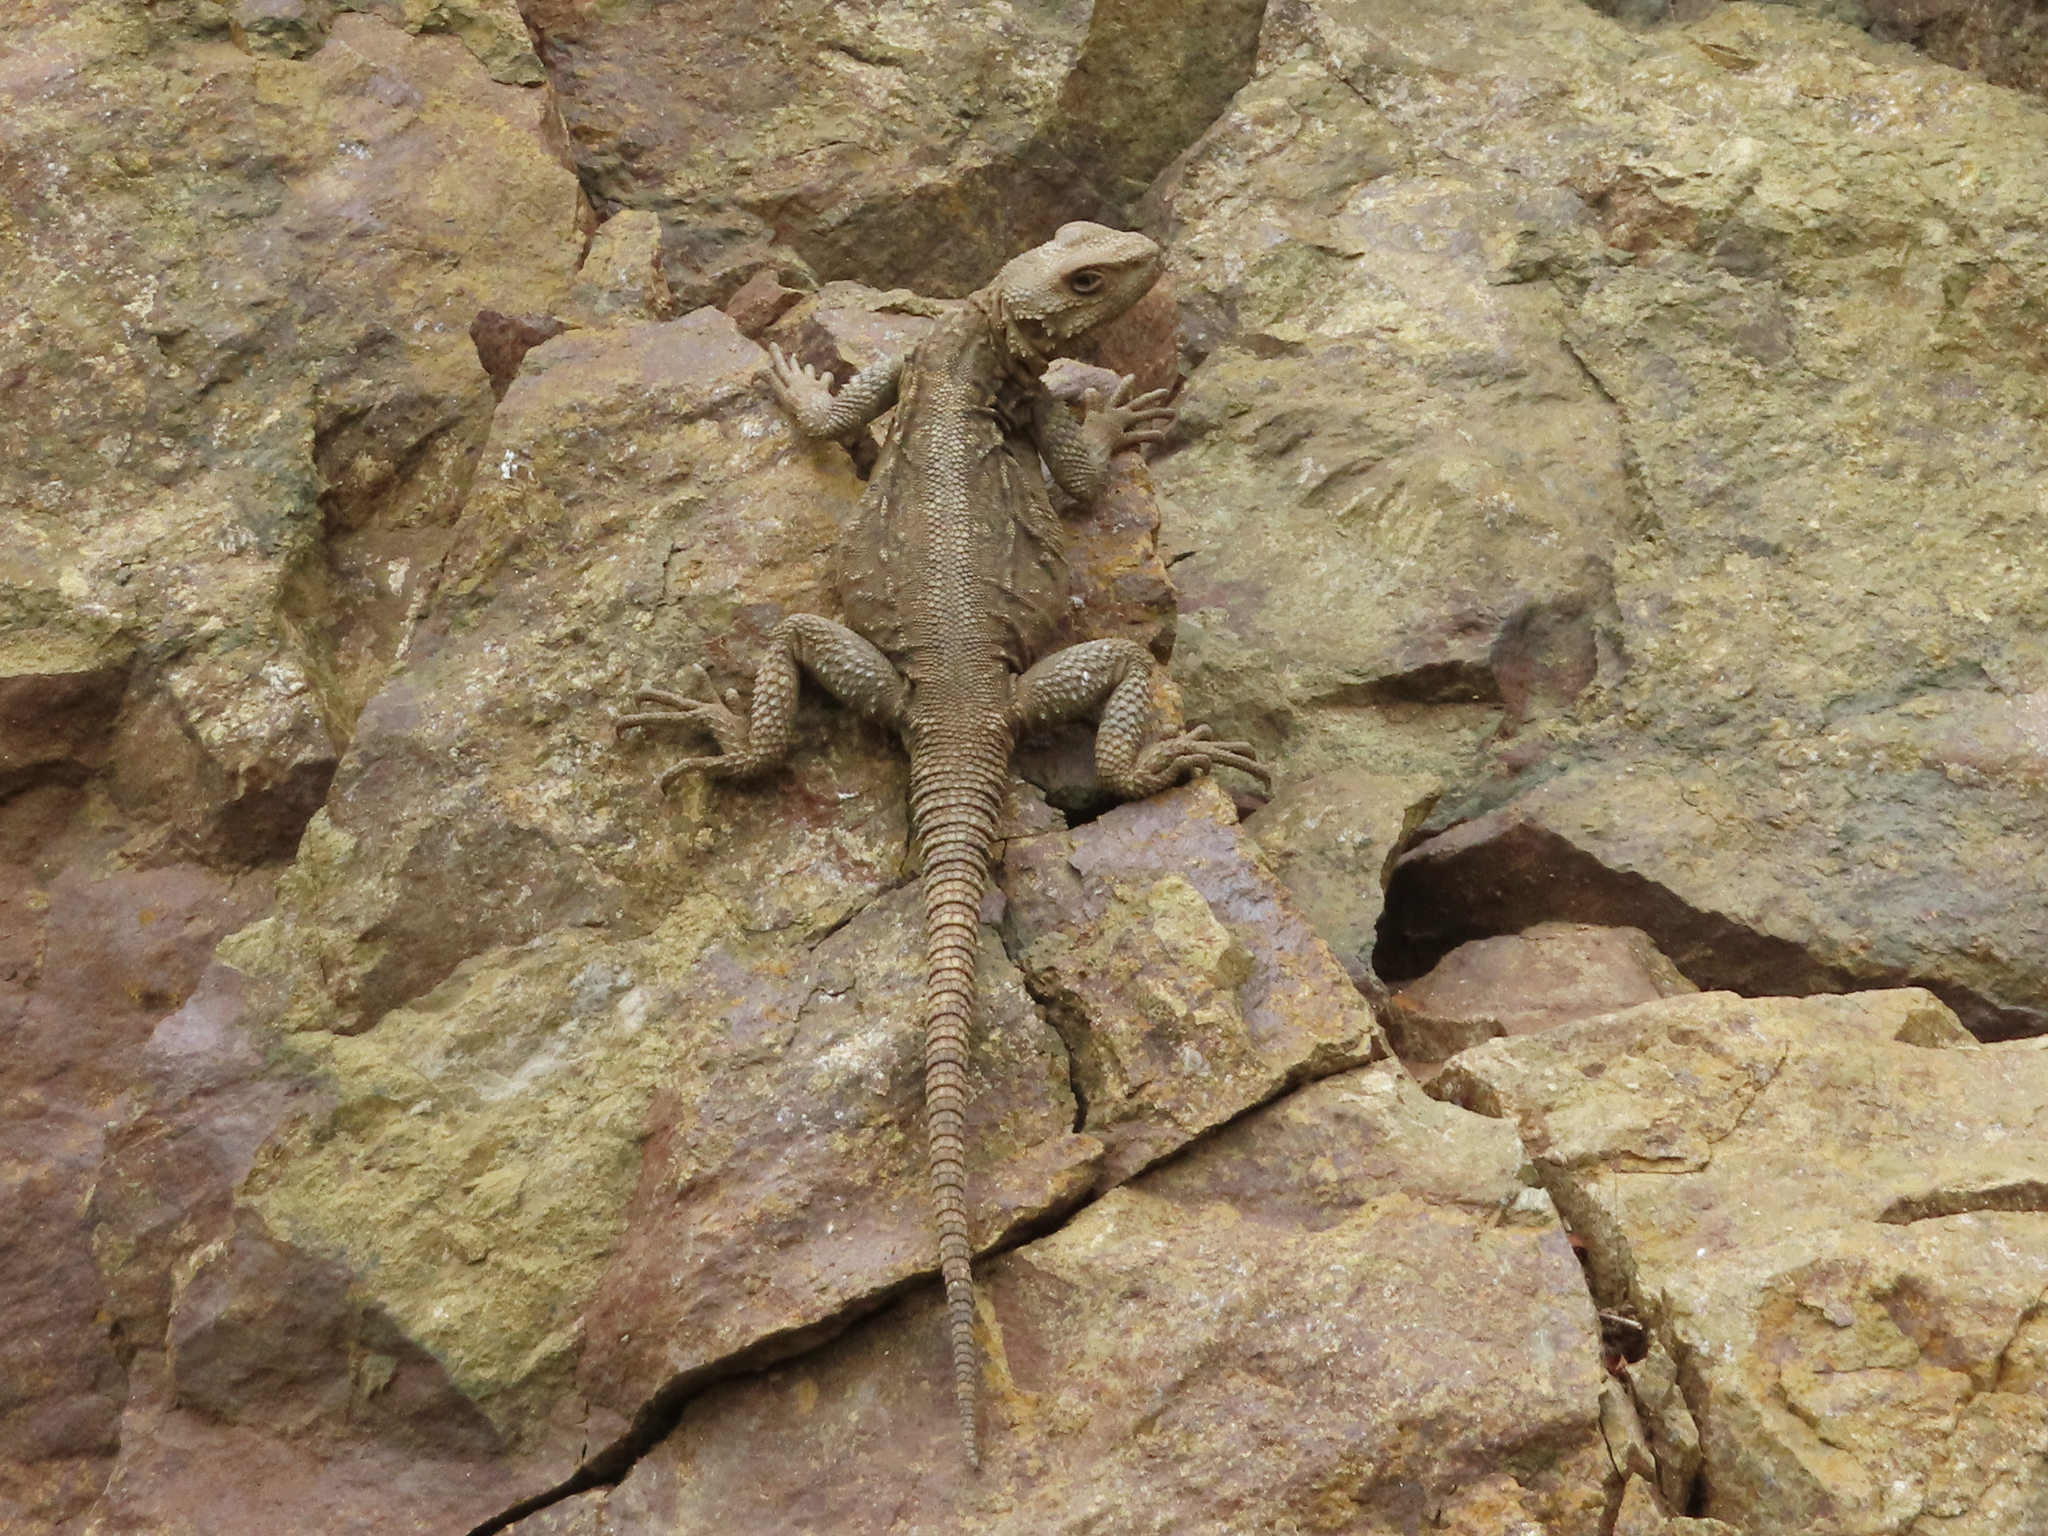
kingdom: Animalia
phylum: Chordata
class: Squamata
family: Agamidae
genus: Paralaudakia
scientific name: Paralaudakia caucasia
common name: Caucasian agama
